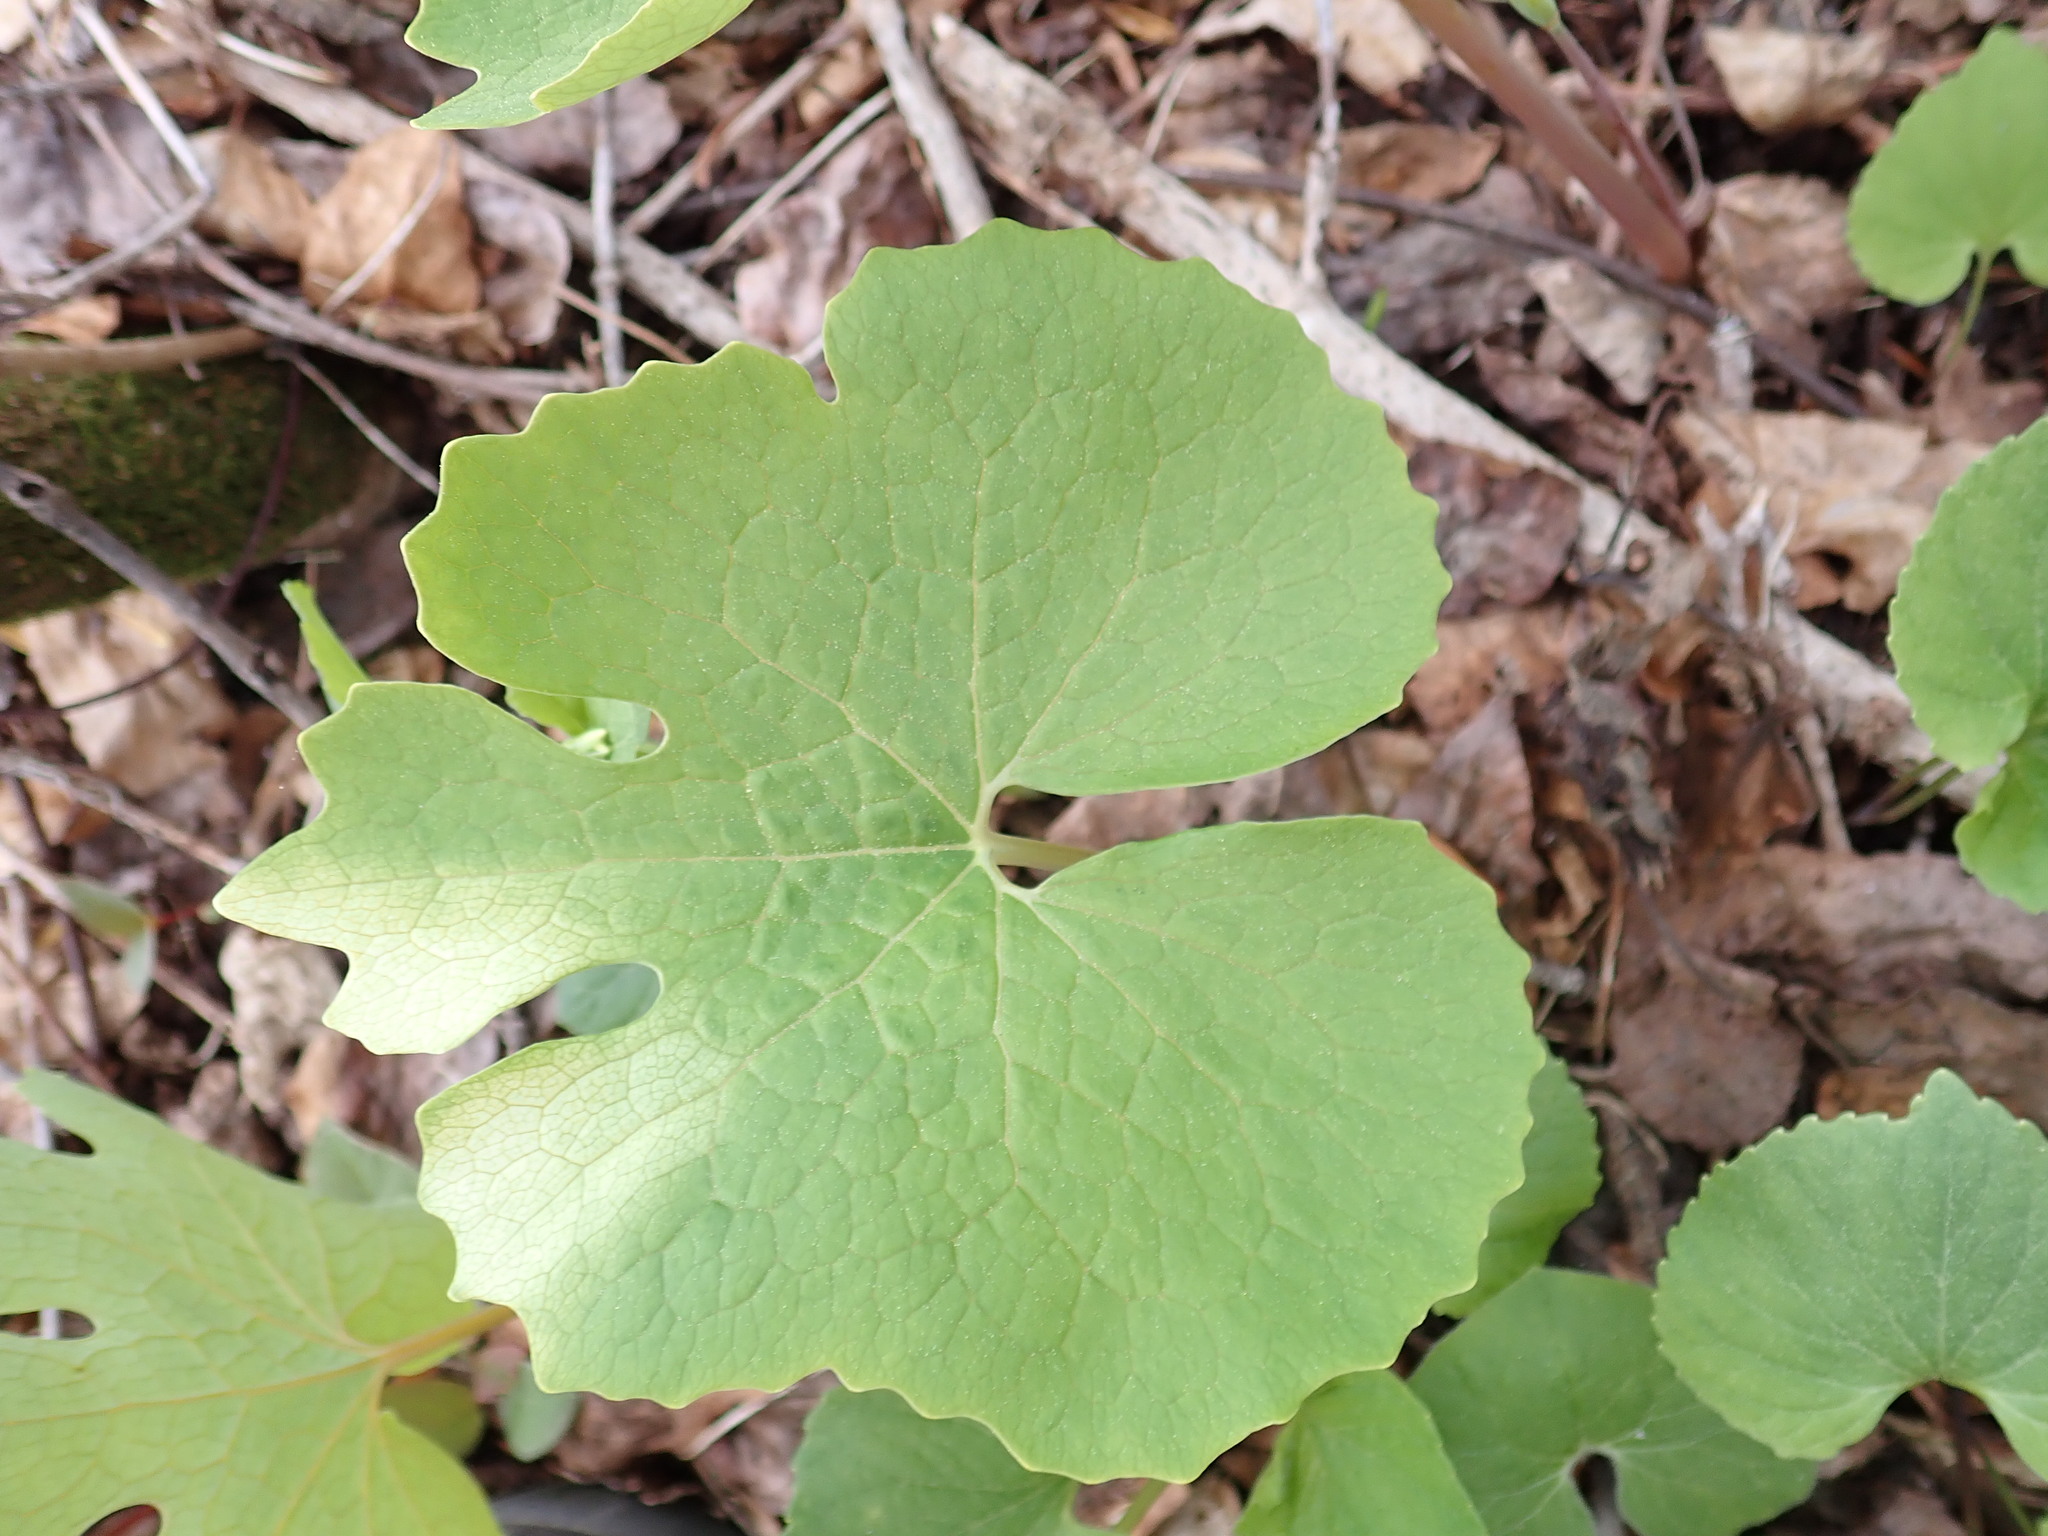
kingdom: Plantae
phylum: Tracheophyta
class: Magnoliopsida
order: Ranunculales
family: Papaveraceae
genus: Sanguinaria
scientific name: Sanguinaria canadensis
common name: Bloodroot
